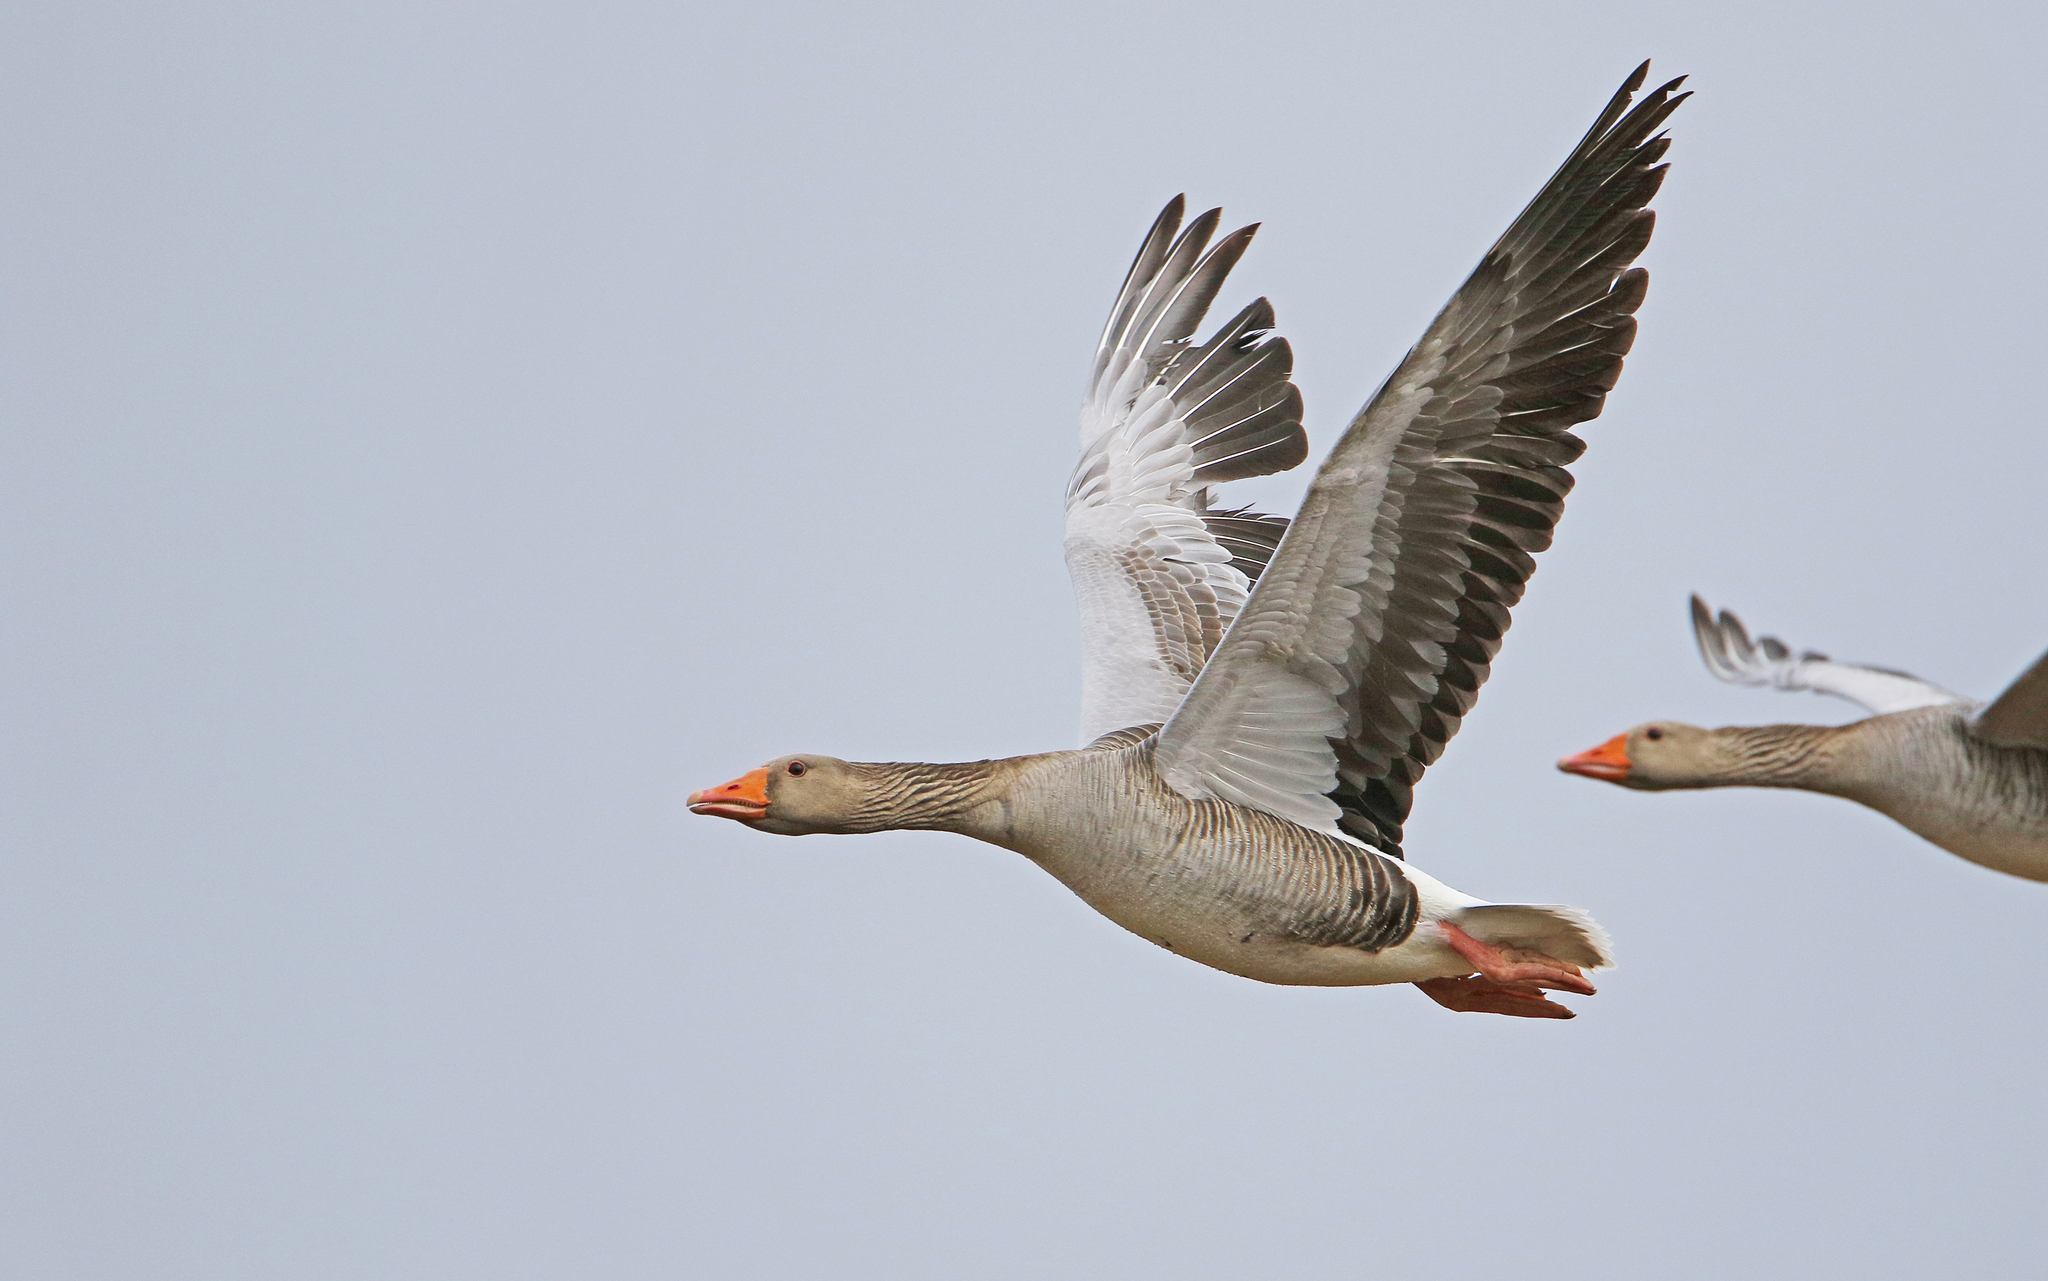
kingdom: Animalia
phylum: Chordata
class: Aves
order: Anseriformes
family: Anatidae
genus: Anser
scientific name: Anser anser
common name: Greylag goose
